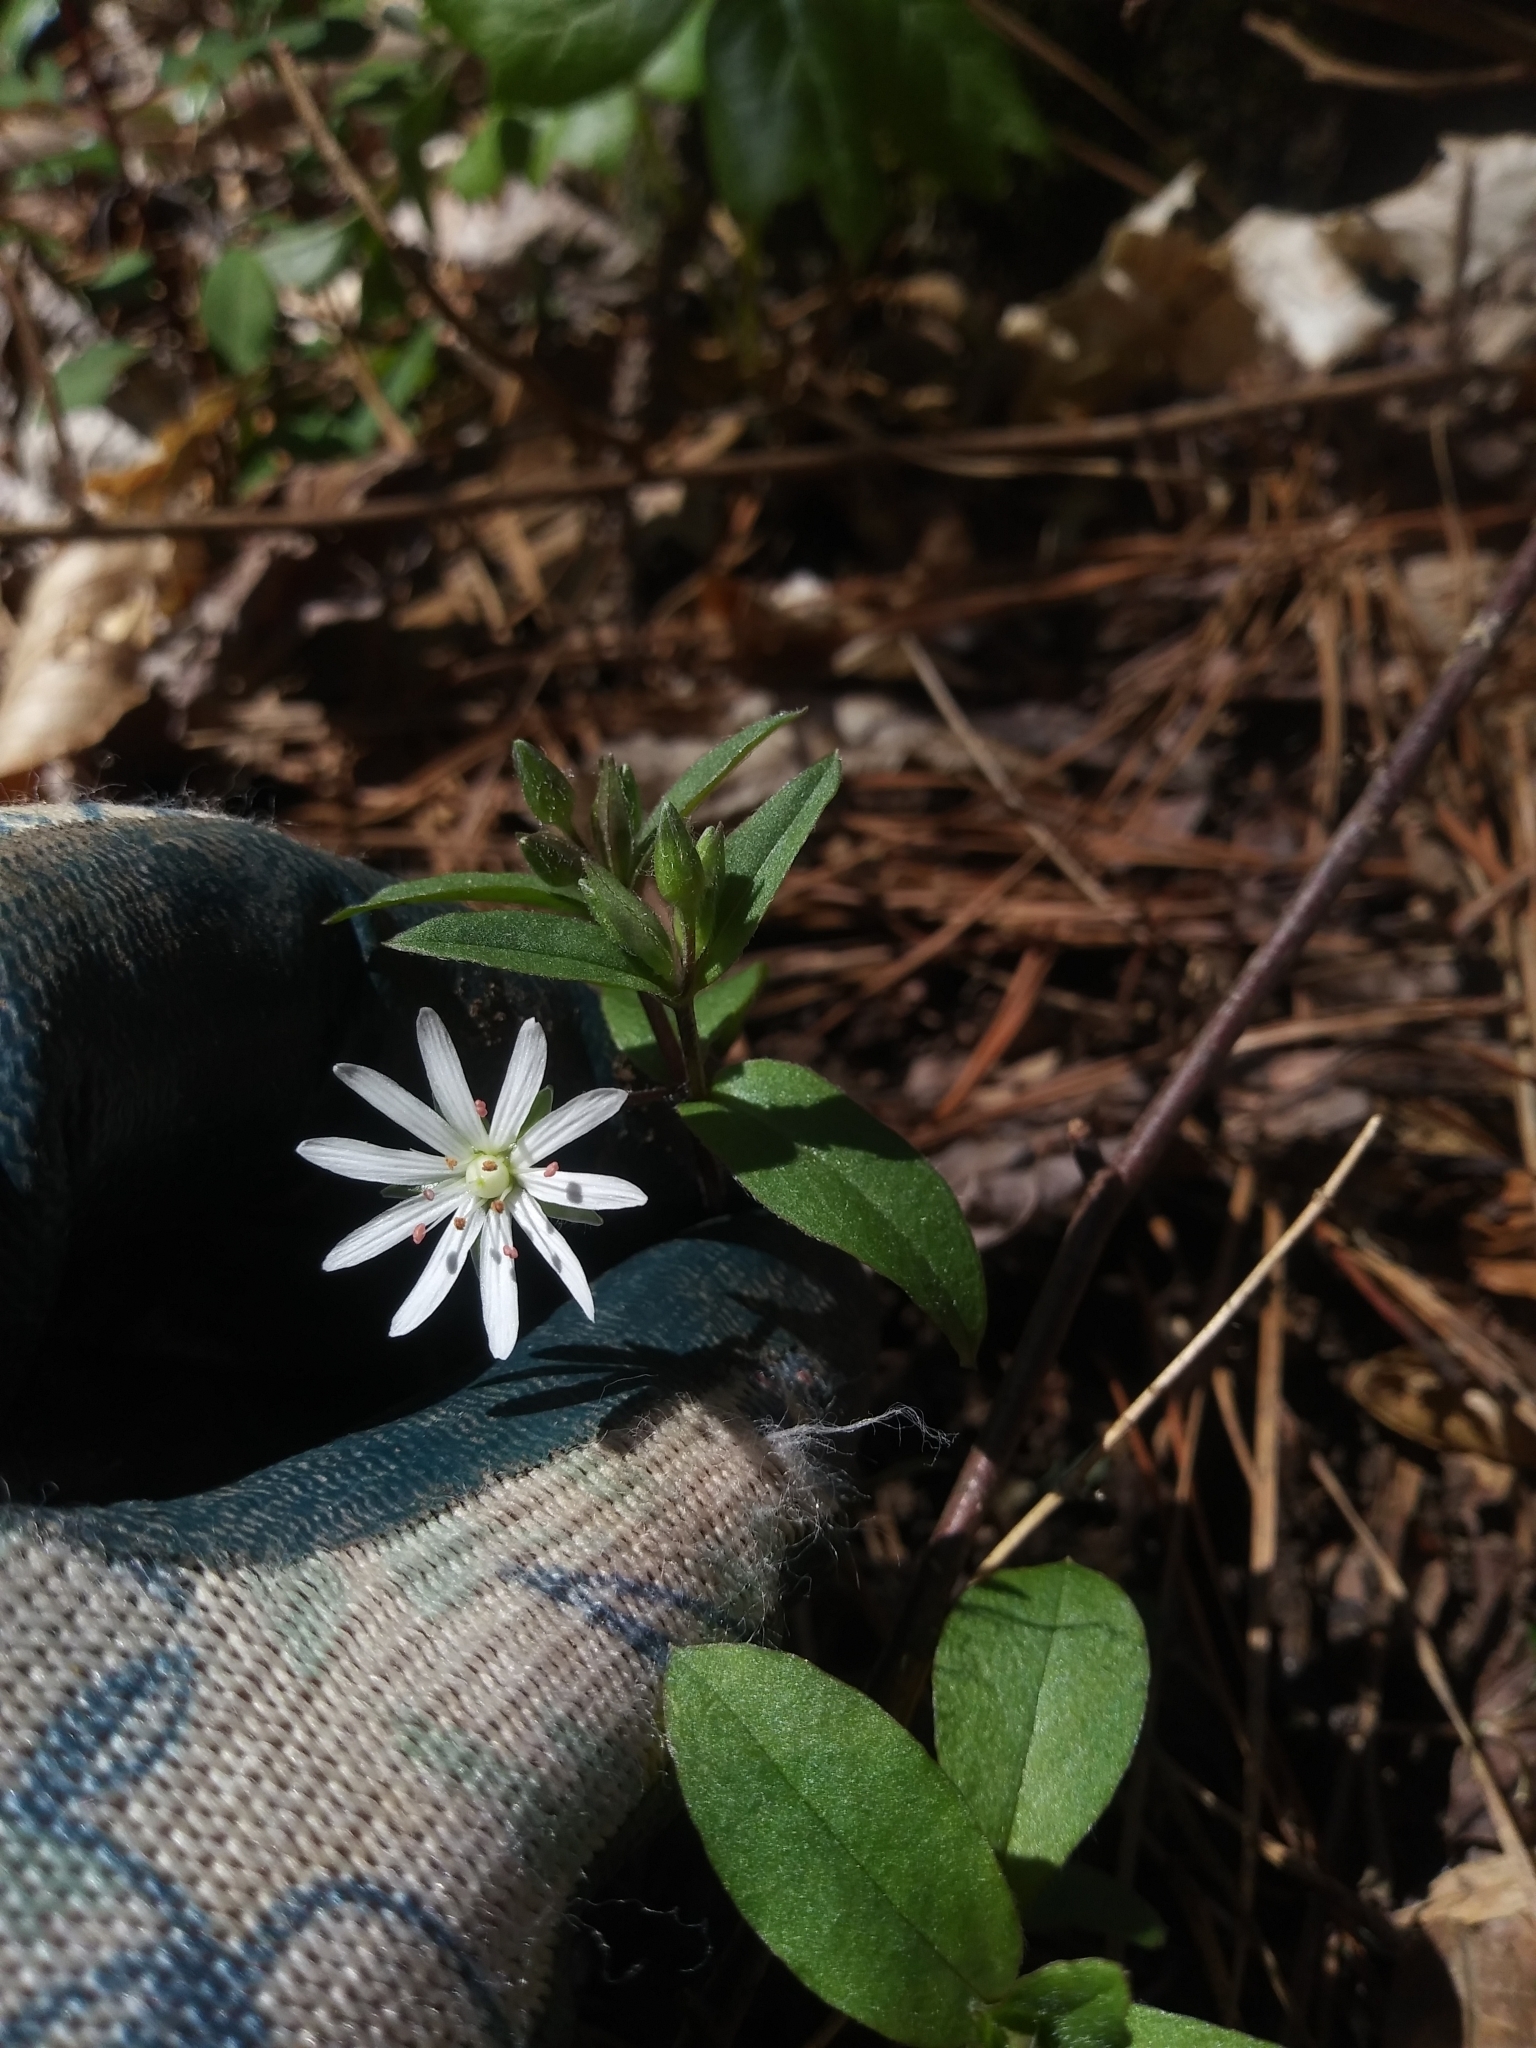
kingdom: Plantae
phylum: Tracheophyta
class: Magnoliopsida
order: Caryophyllales
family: Caryophyllaceae
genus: Stellaria
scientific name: Stellaria pubera
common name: Star chickweed
